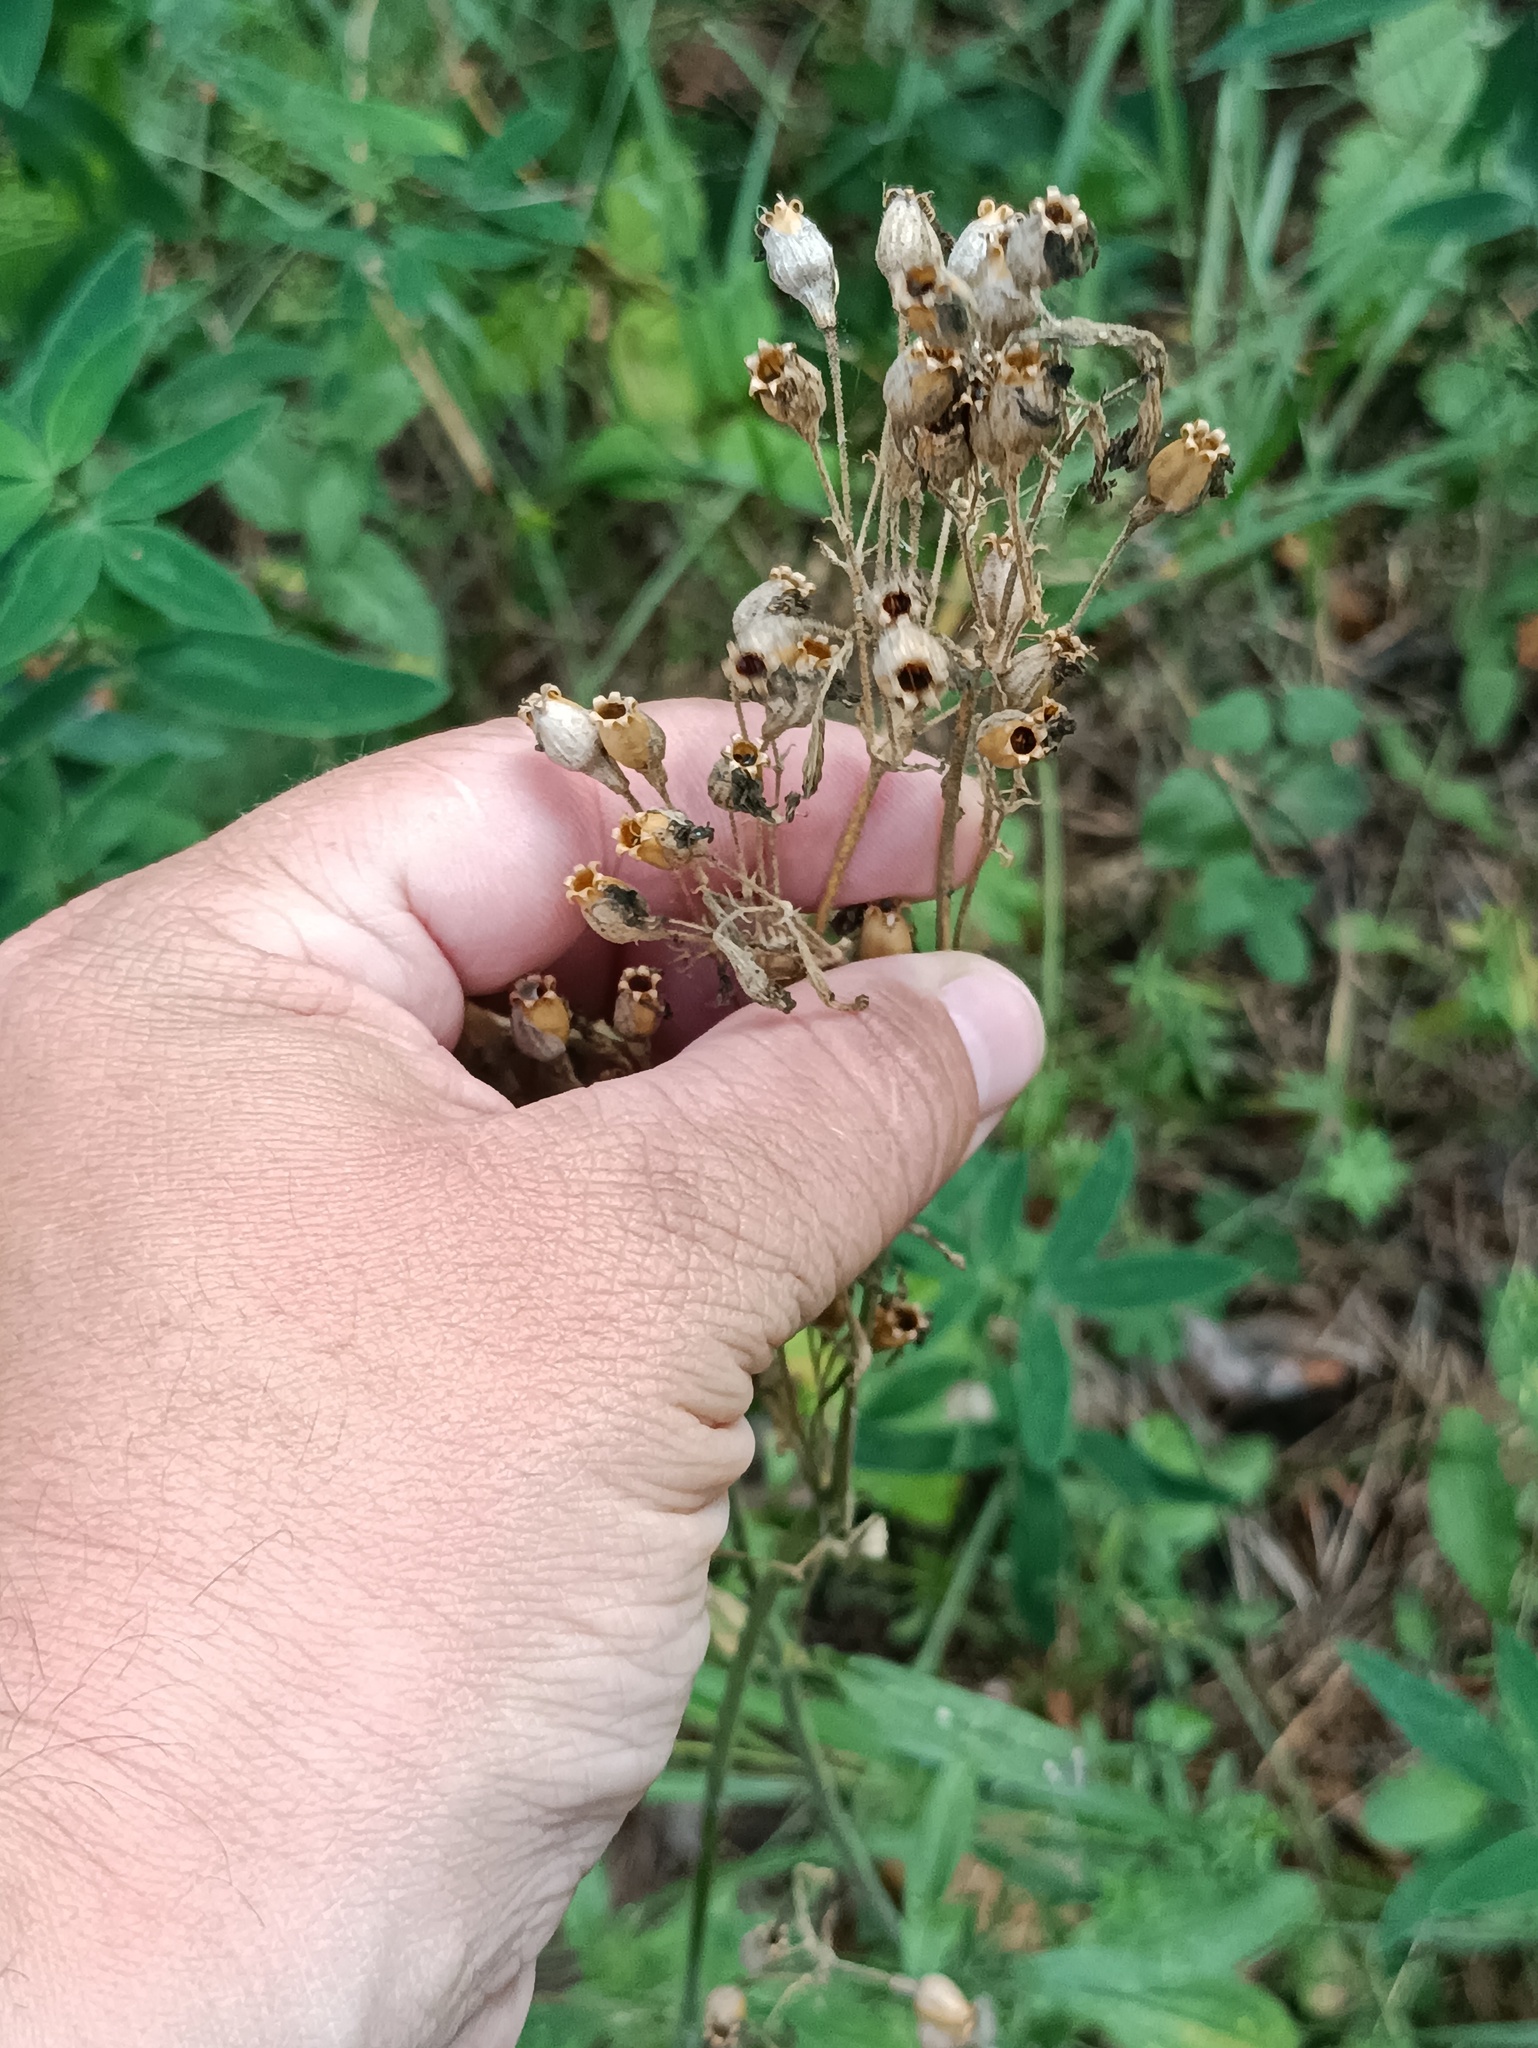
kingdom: Plantae
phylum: Tracheophyta
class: Magnoliopsida
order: Caryophyllales
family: Caryophyllaceae
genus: Silene
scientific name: Silene nutans
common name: Nottingham catchfly
